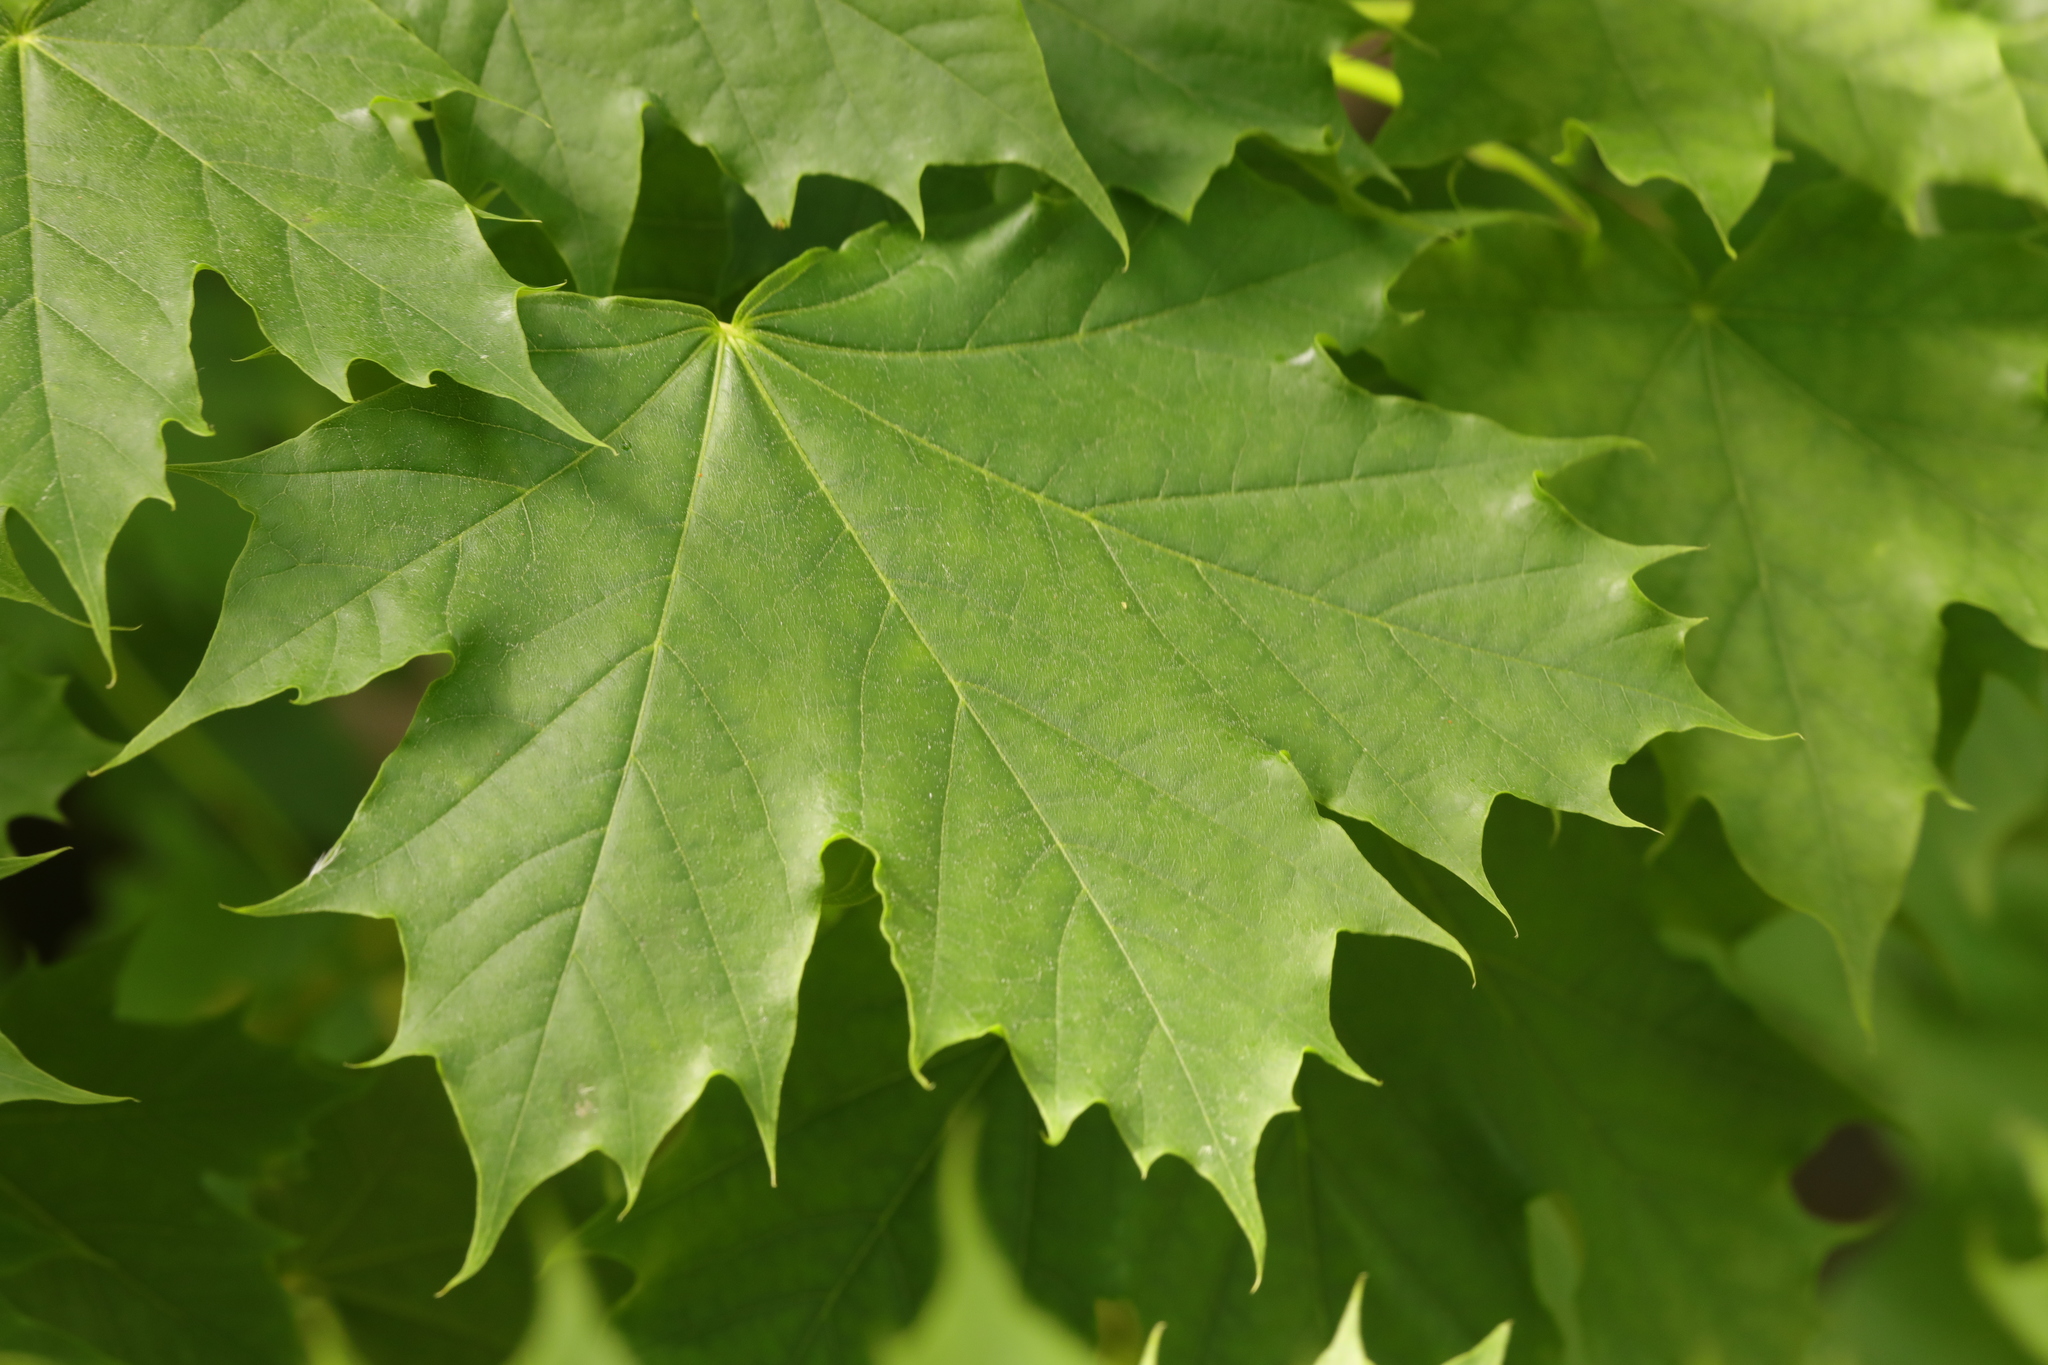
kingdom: Plantae
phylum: Tracheophyta
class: Magnoliopsida
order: Sapindales
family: Sapindaceae
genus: Acer
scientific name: Acer platanoides
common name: Norway maple
